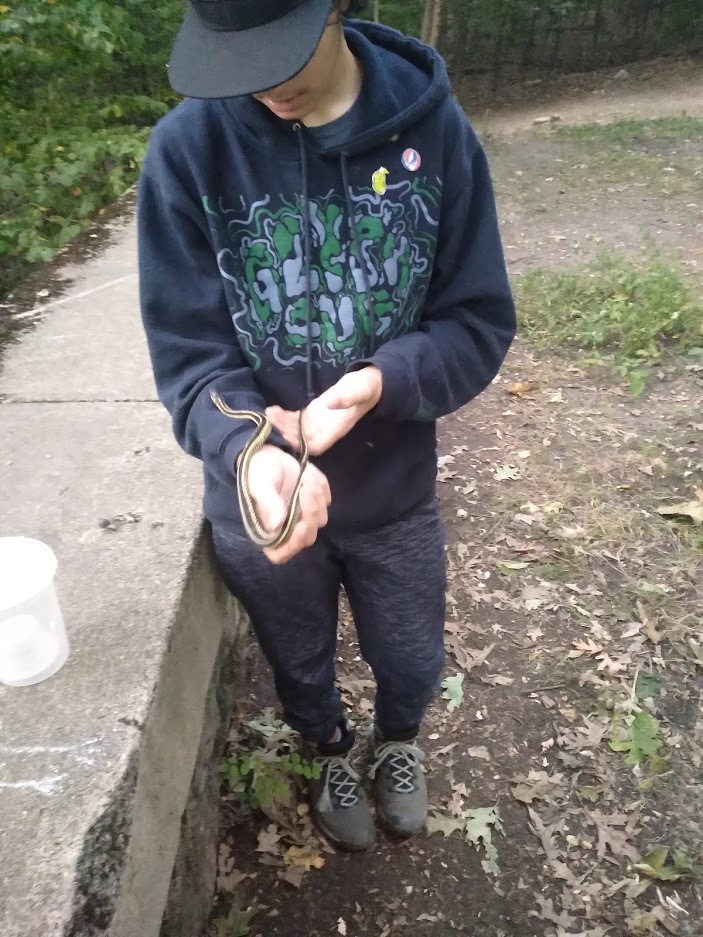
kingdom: Animalia
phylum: Chordata
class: Squamata
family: Colubridae
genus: Thamnophis
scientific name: Thamnophis sirtalis
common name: Common garter snake
